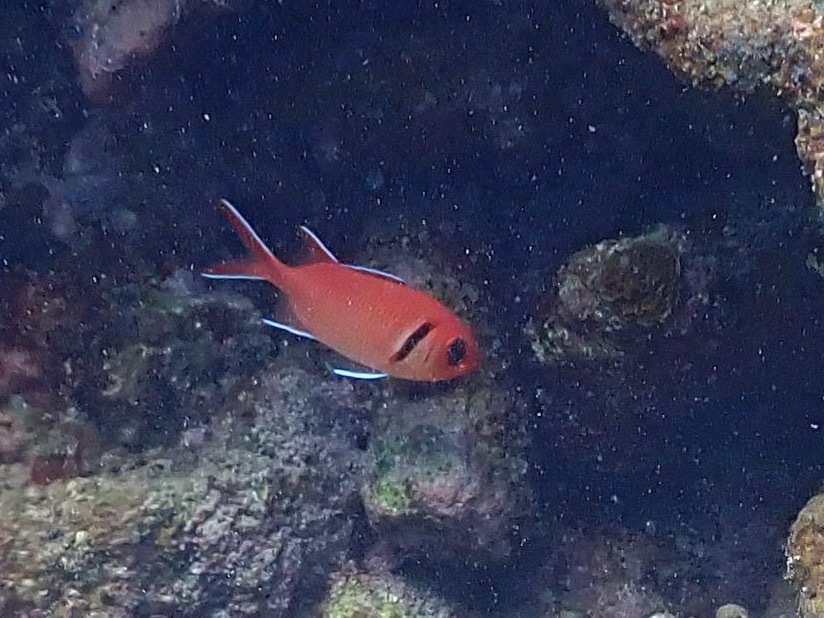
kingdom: Animalia
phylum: Chordata
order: Beryciformes
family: Holocentridae
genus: Myripristis
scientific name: Myripristis jacobus
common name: Blackbar soldierfish
